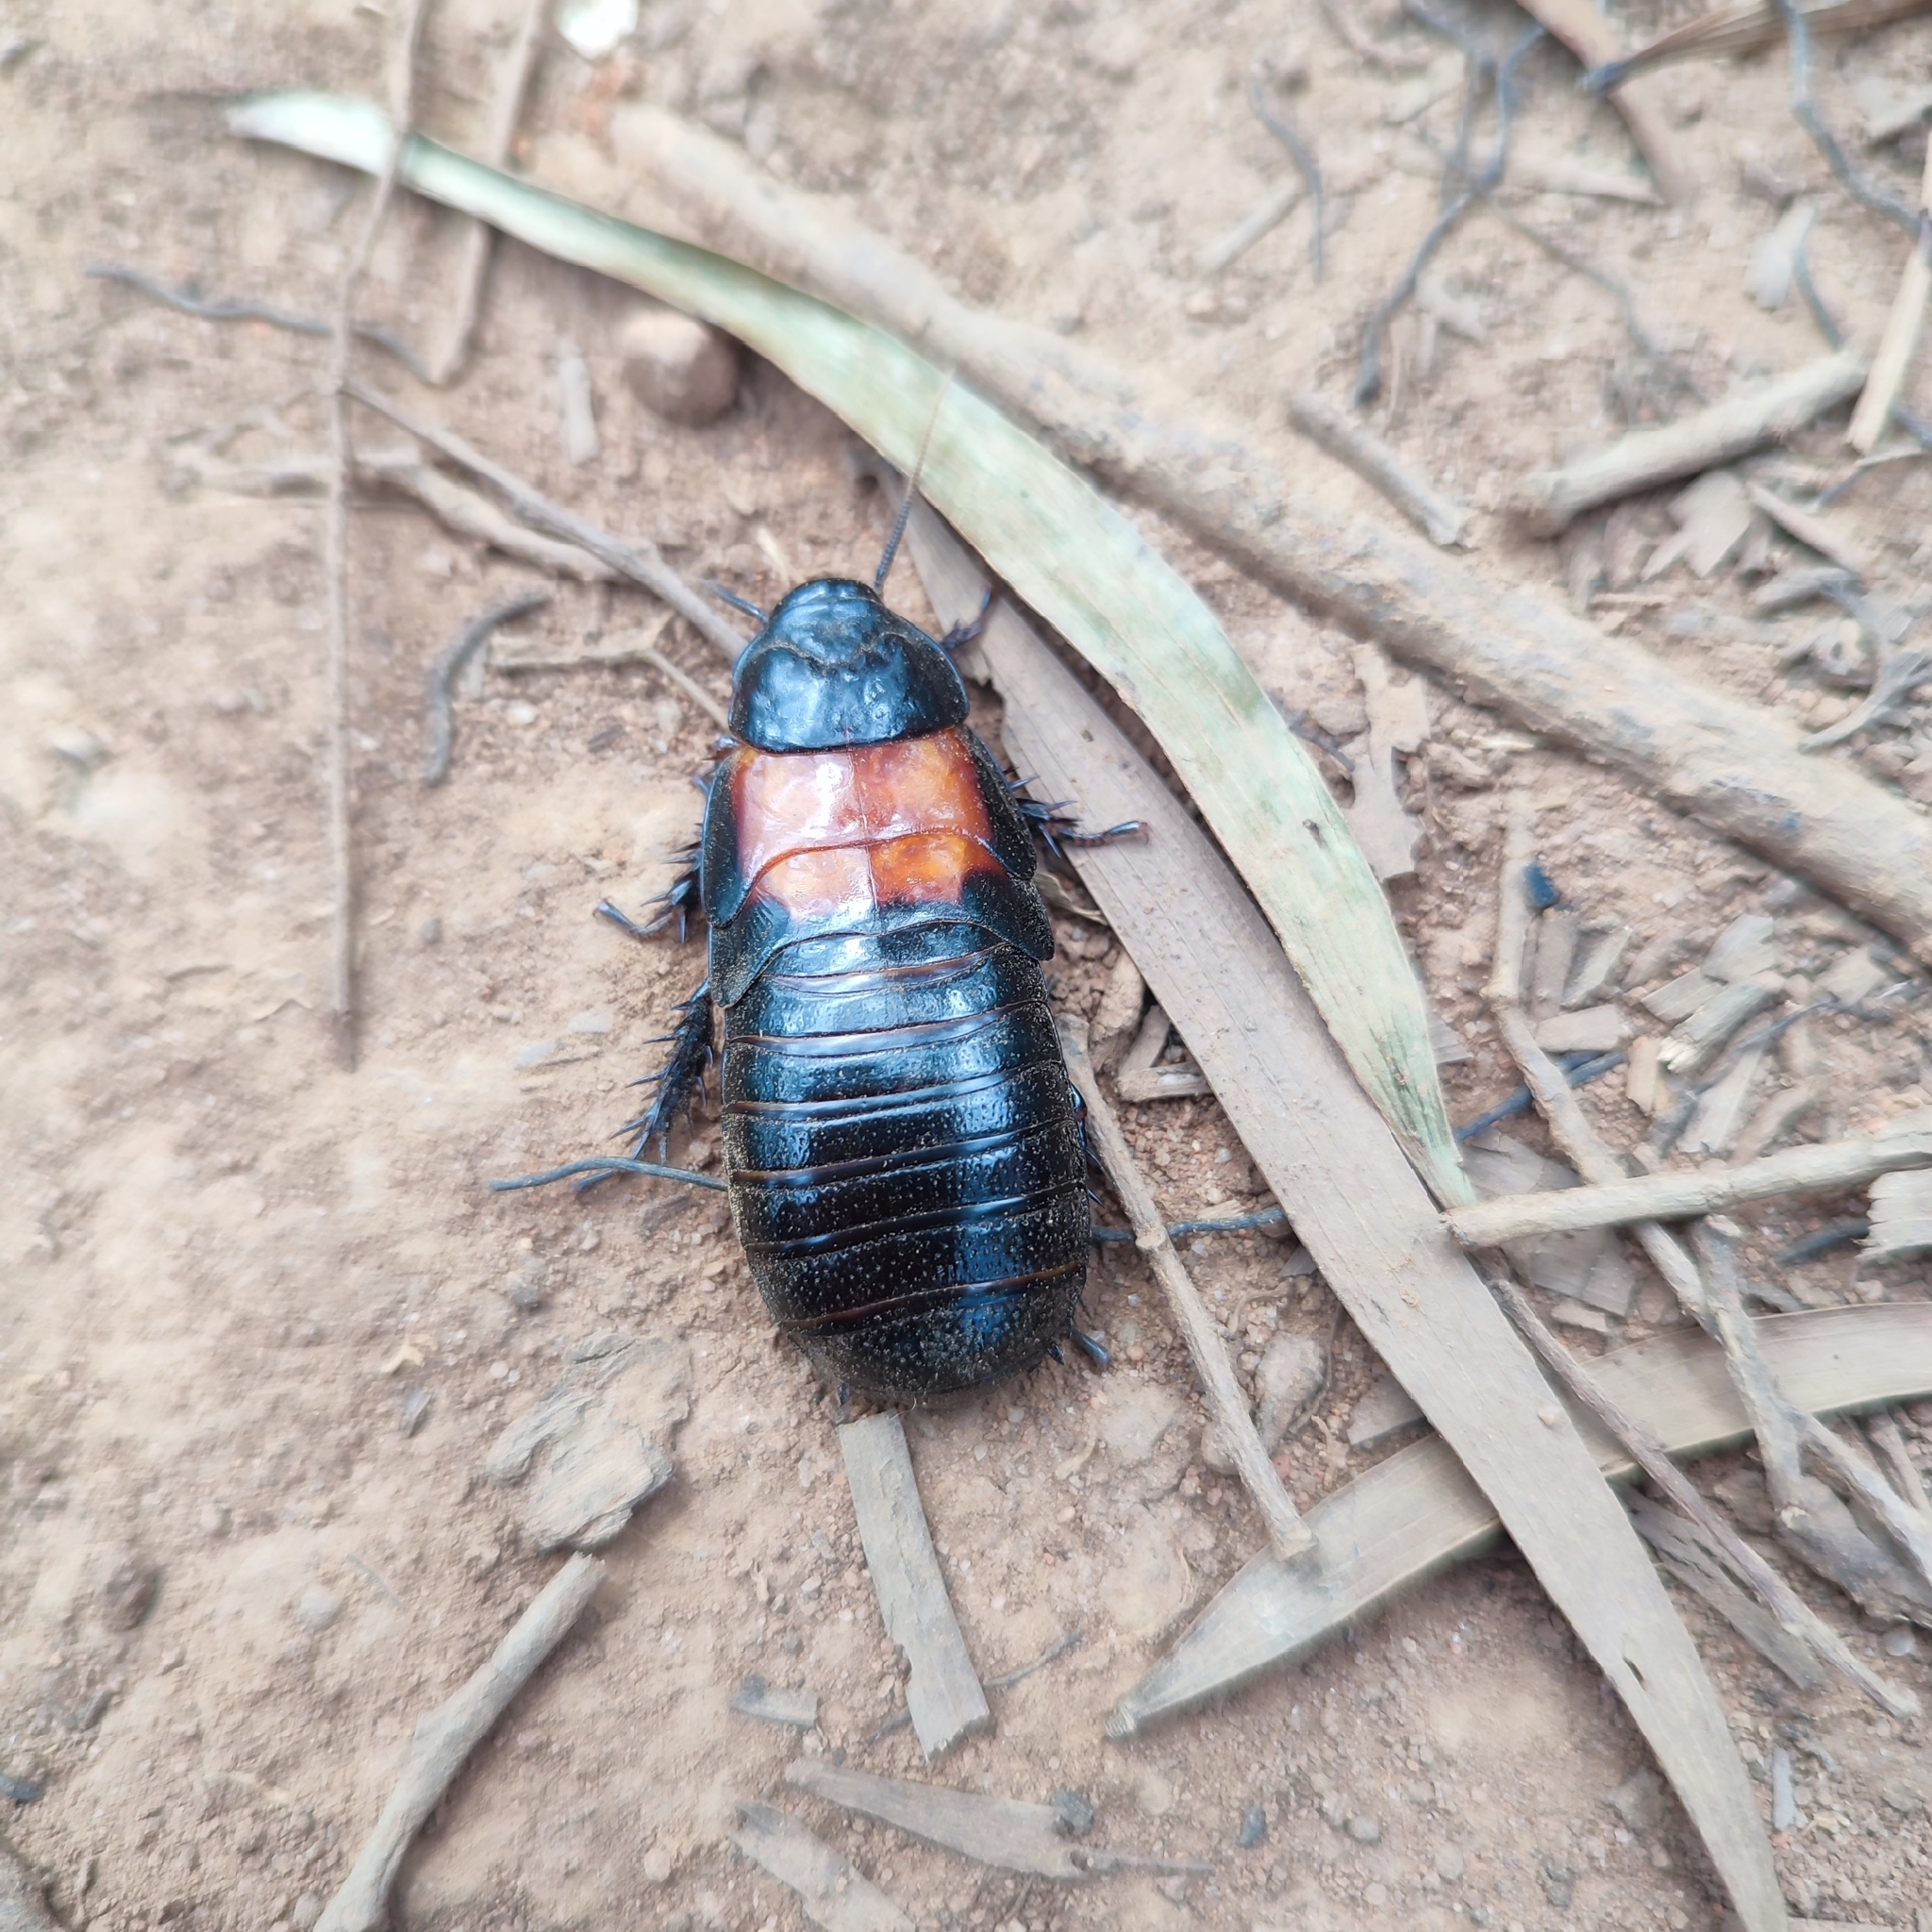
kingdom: Animalia
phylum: Arthropoda
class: Insecta
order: Blattodea
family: Blaberidae
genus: Panesthia
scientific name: Panesthia angustipennis
